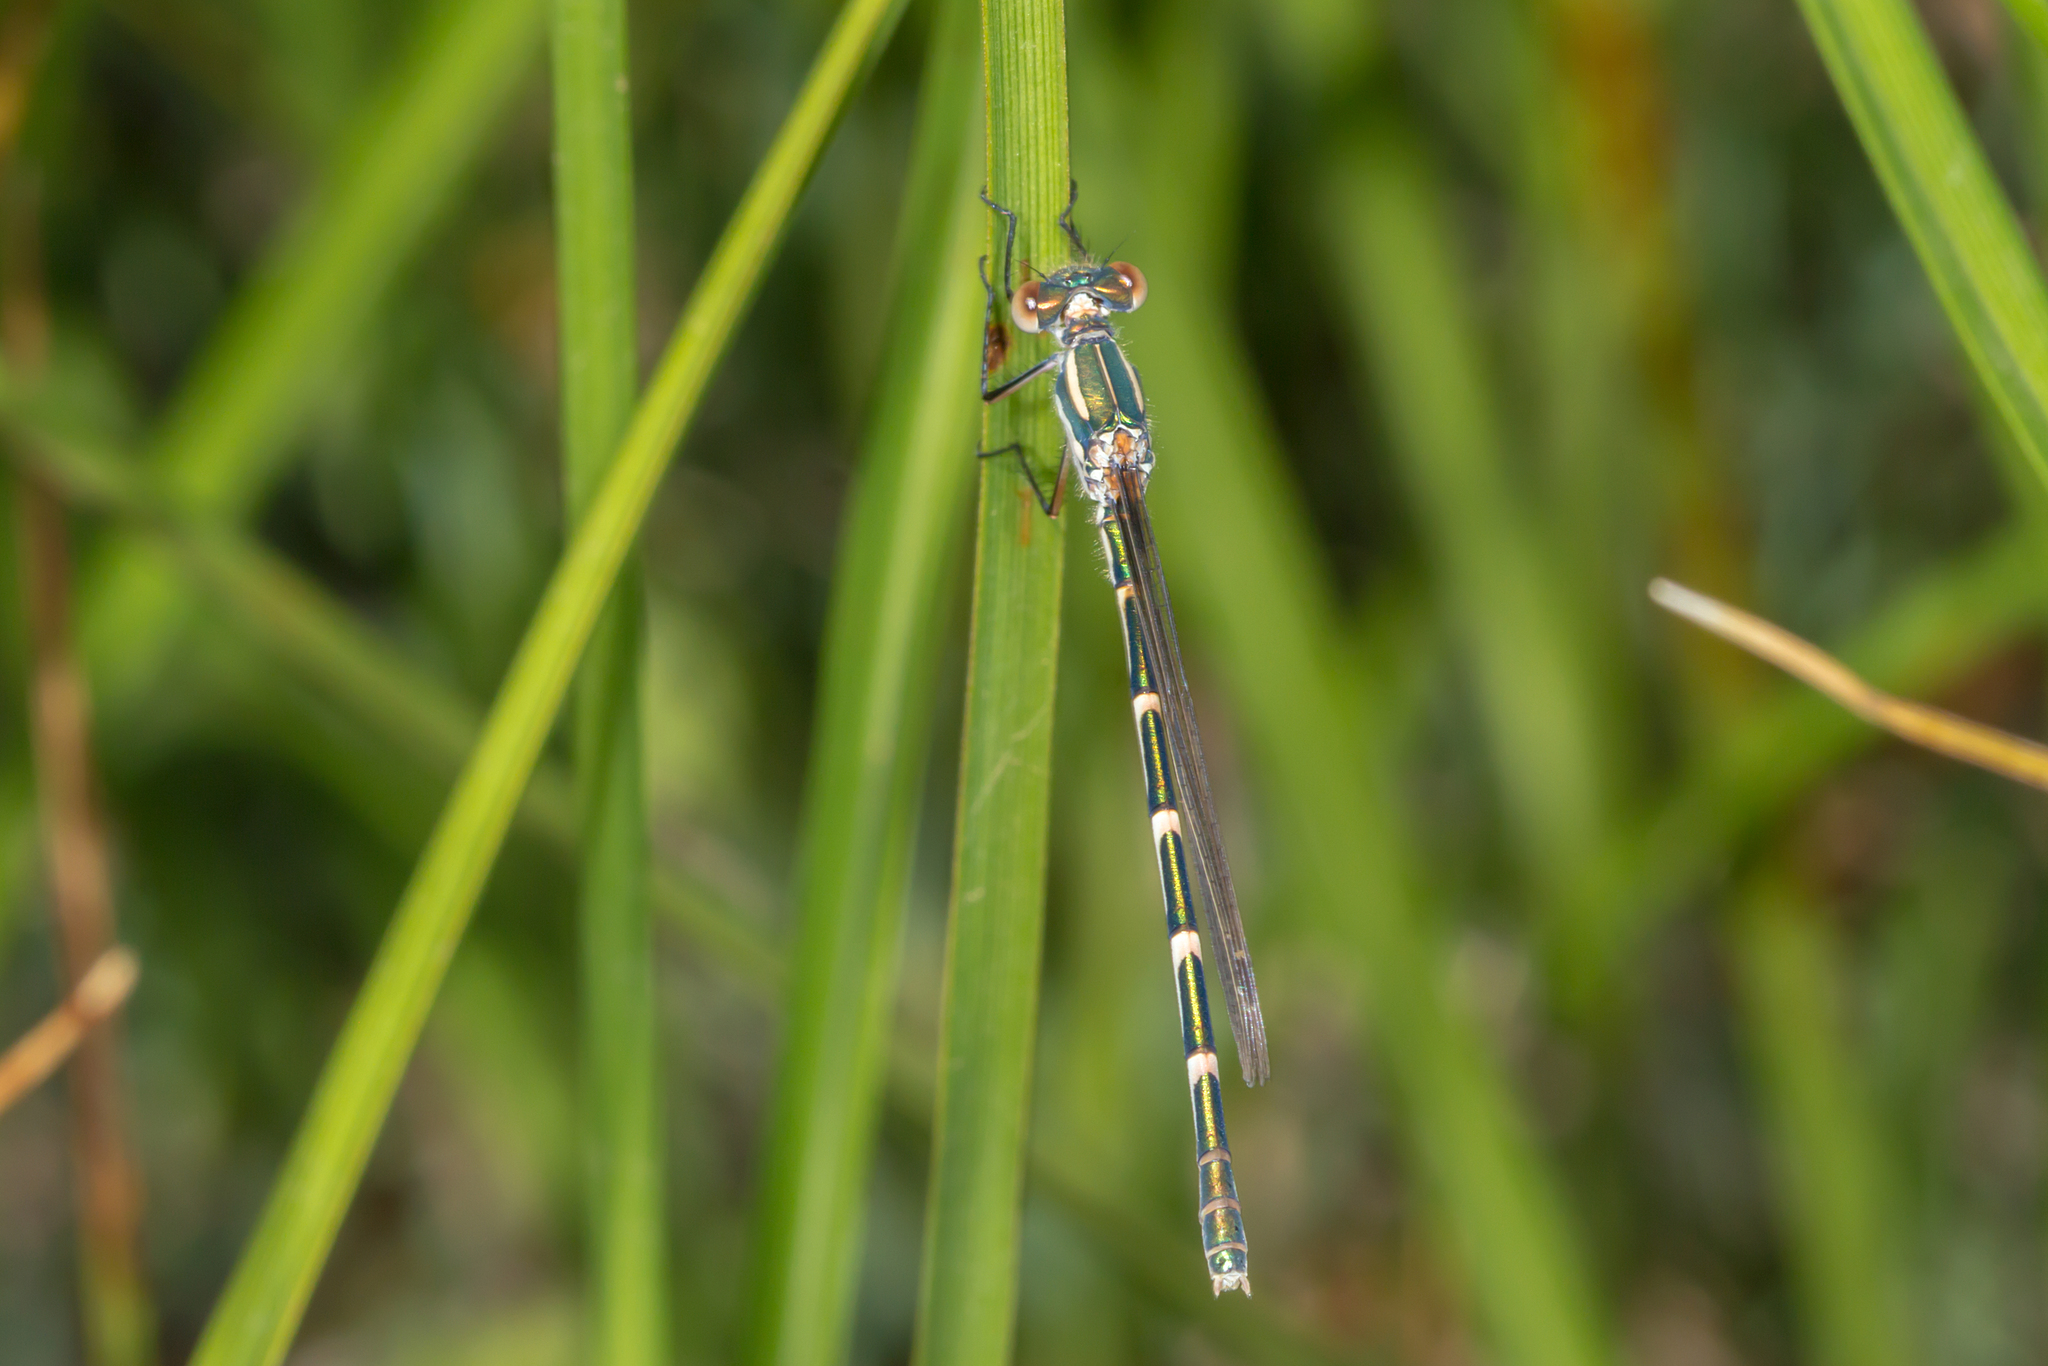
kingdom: Animalia
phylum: Arthropoda
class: Insecta
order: Odonata
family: Lestidae
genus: Austrolestes
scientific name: Austrolestes annulosus
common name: Blue ringtail
